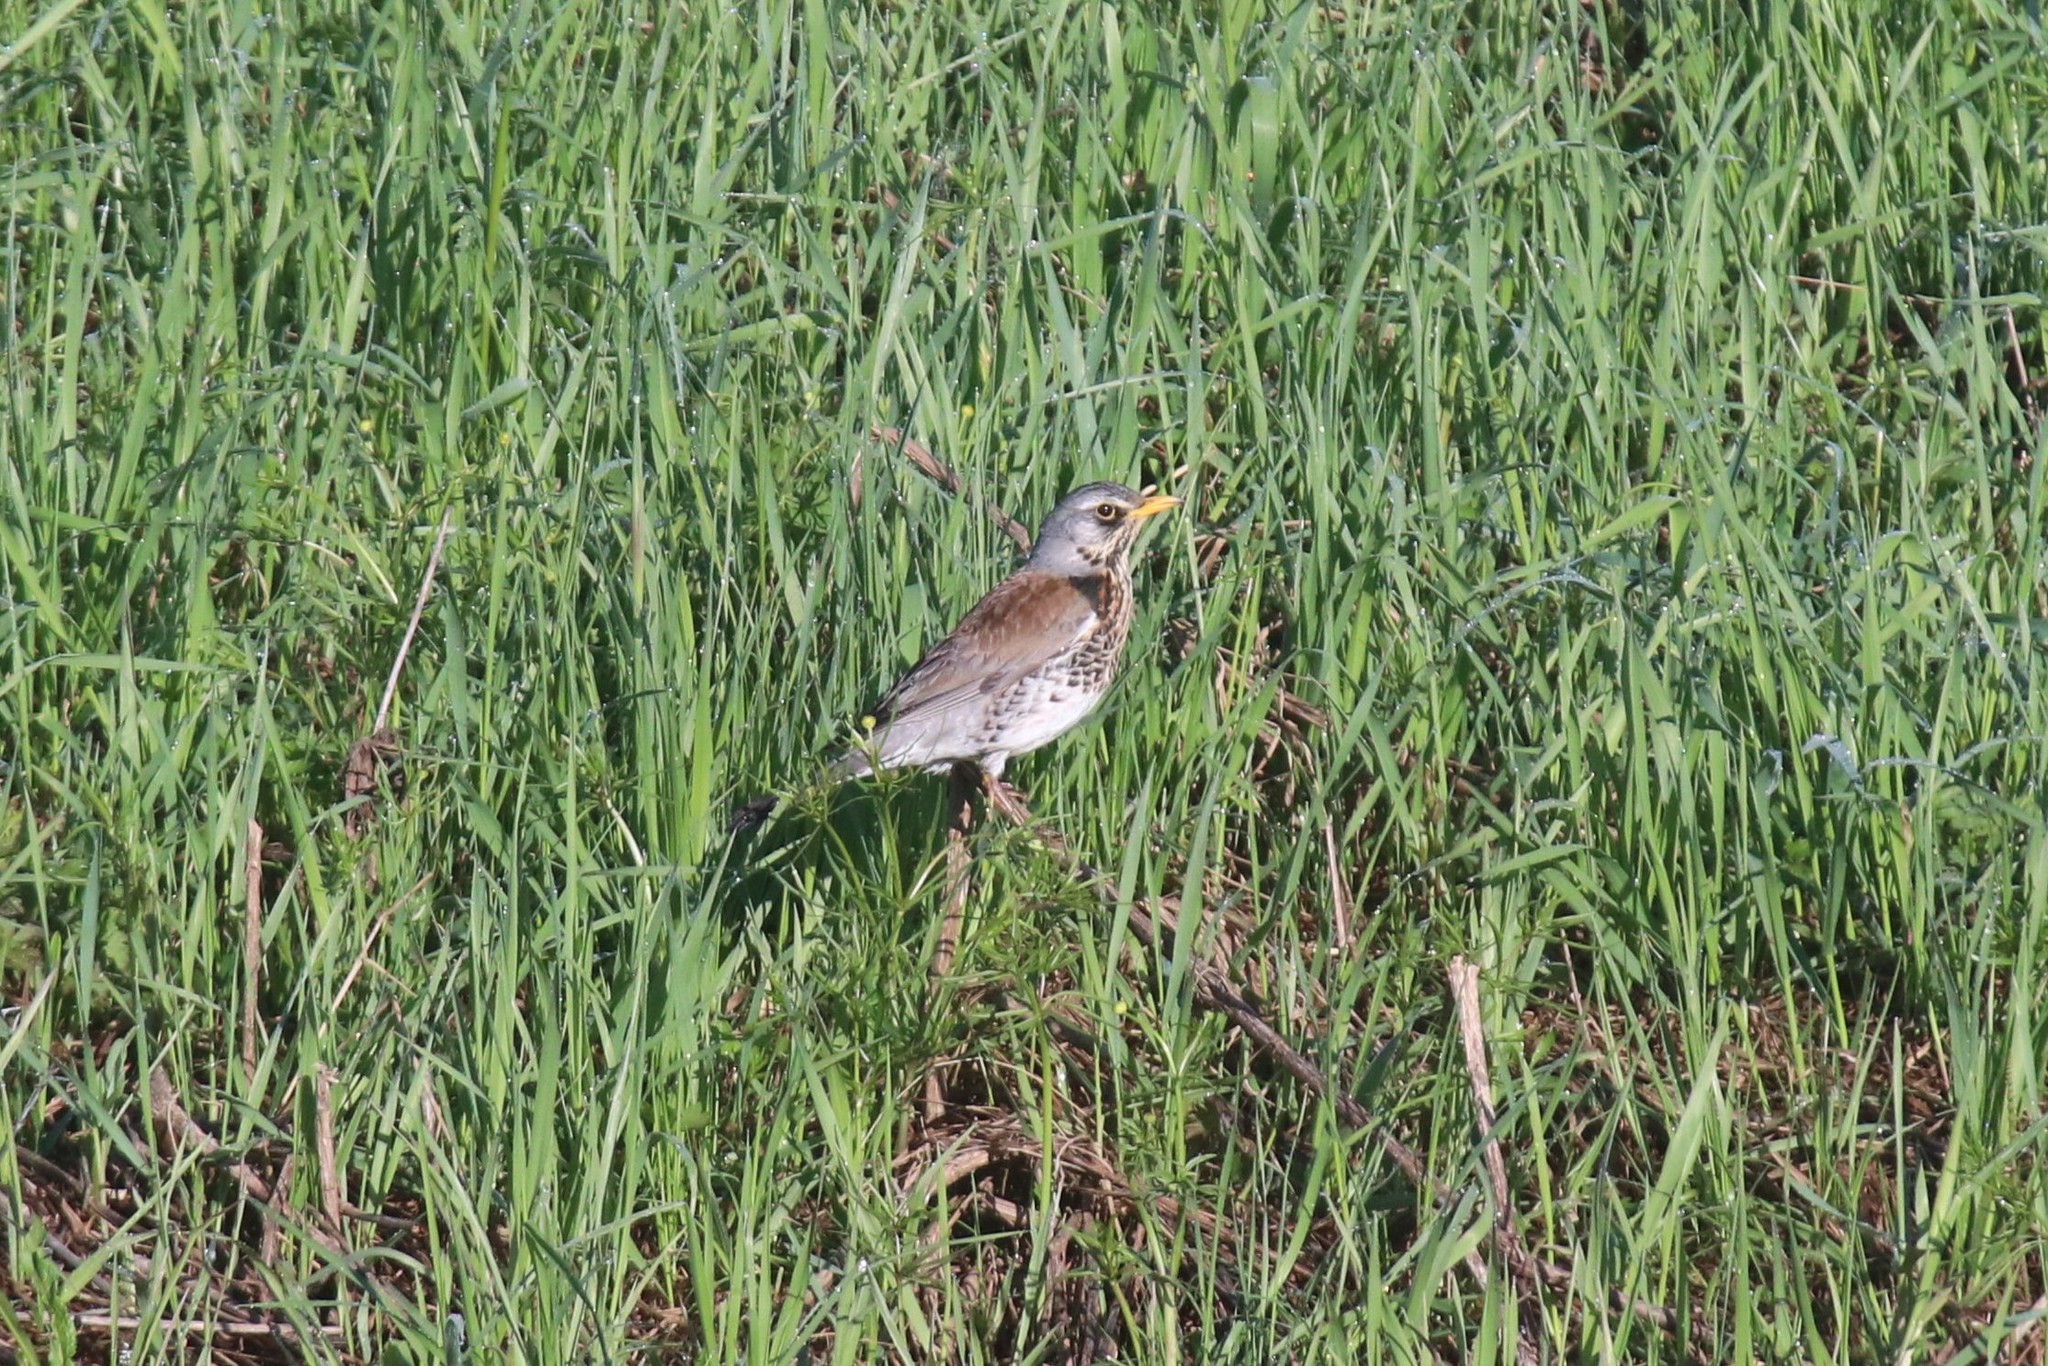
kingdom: Animalia
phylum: Chordata
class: Aves
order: Passeriformes
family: Turdidae
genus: Turdus
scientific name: Turdus pilaris
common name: Fieldfare
